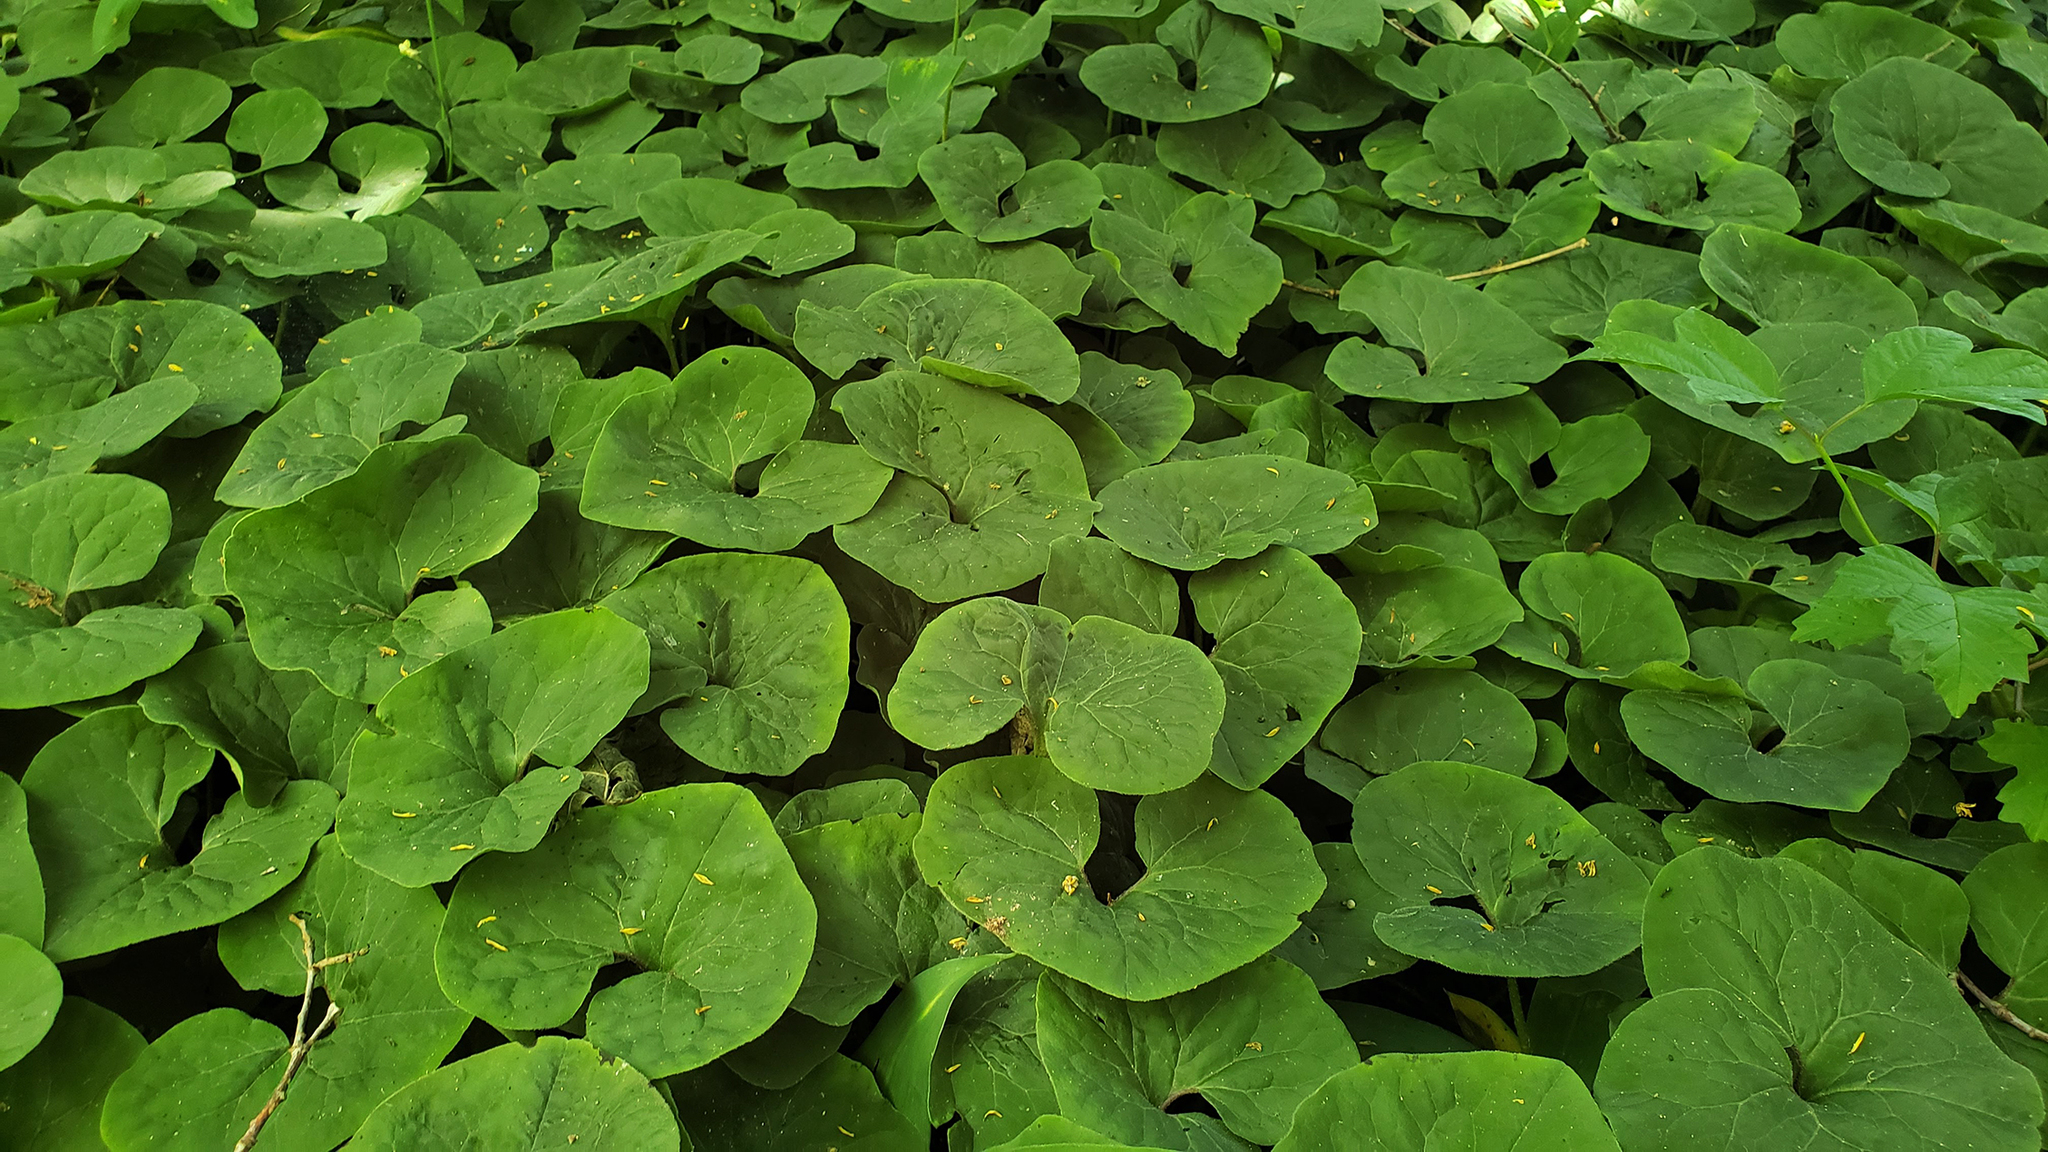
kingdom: Plantae
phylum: Tracheophyta
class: Magnoliopsida
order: Piperales
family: Aristolochiaceae
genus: Asarum
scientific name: Asarum canadense
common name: Wild ginger
